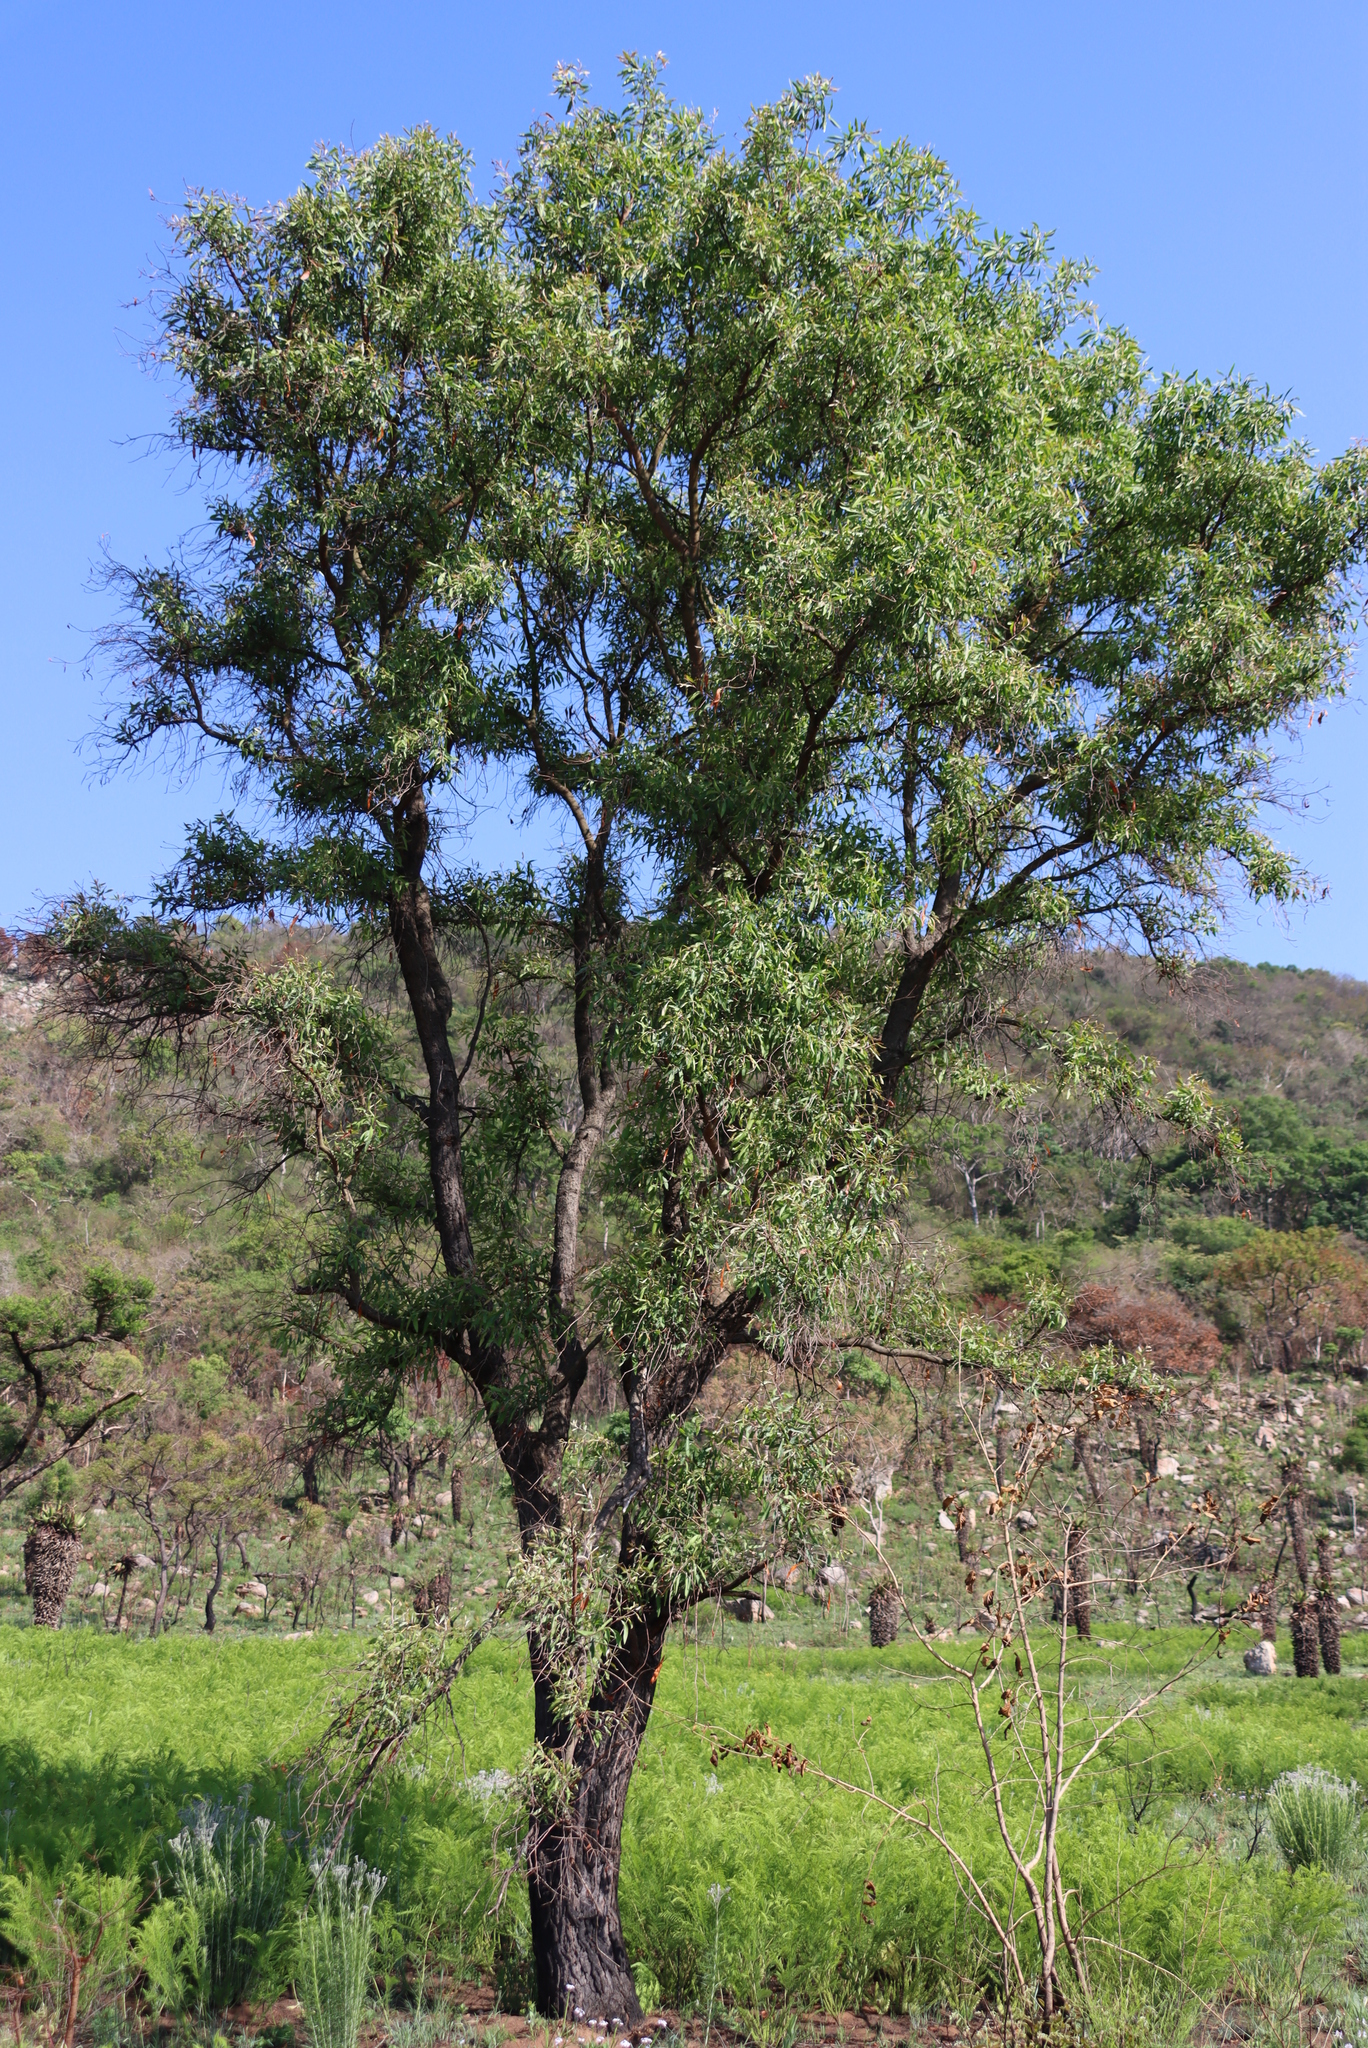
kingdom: Plantae
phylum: Tracheophyta
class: Magnoliopsida
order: Proteales
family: Proteaceae
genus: Faurea
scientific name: Faurea saligna
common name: African bean
